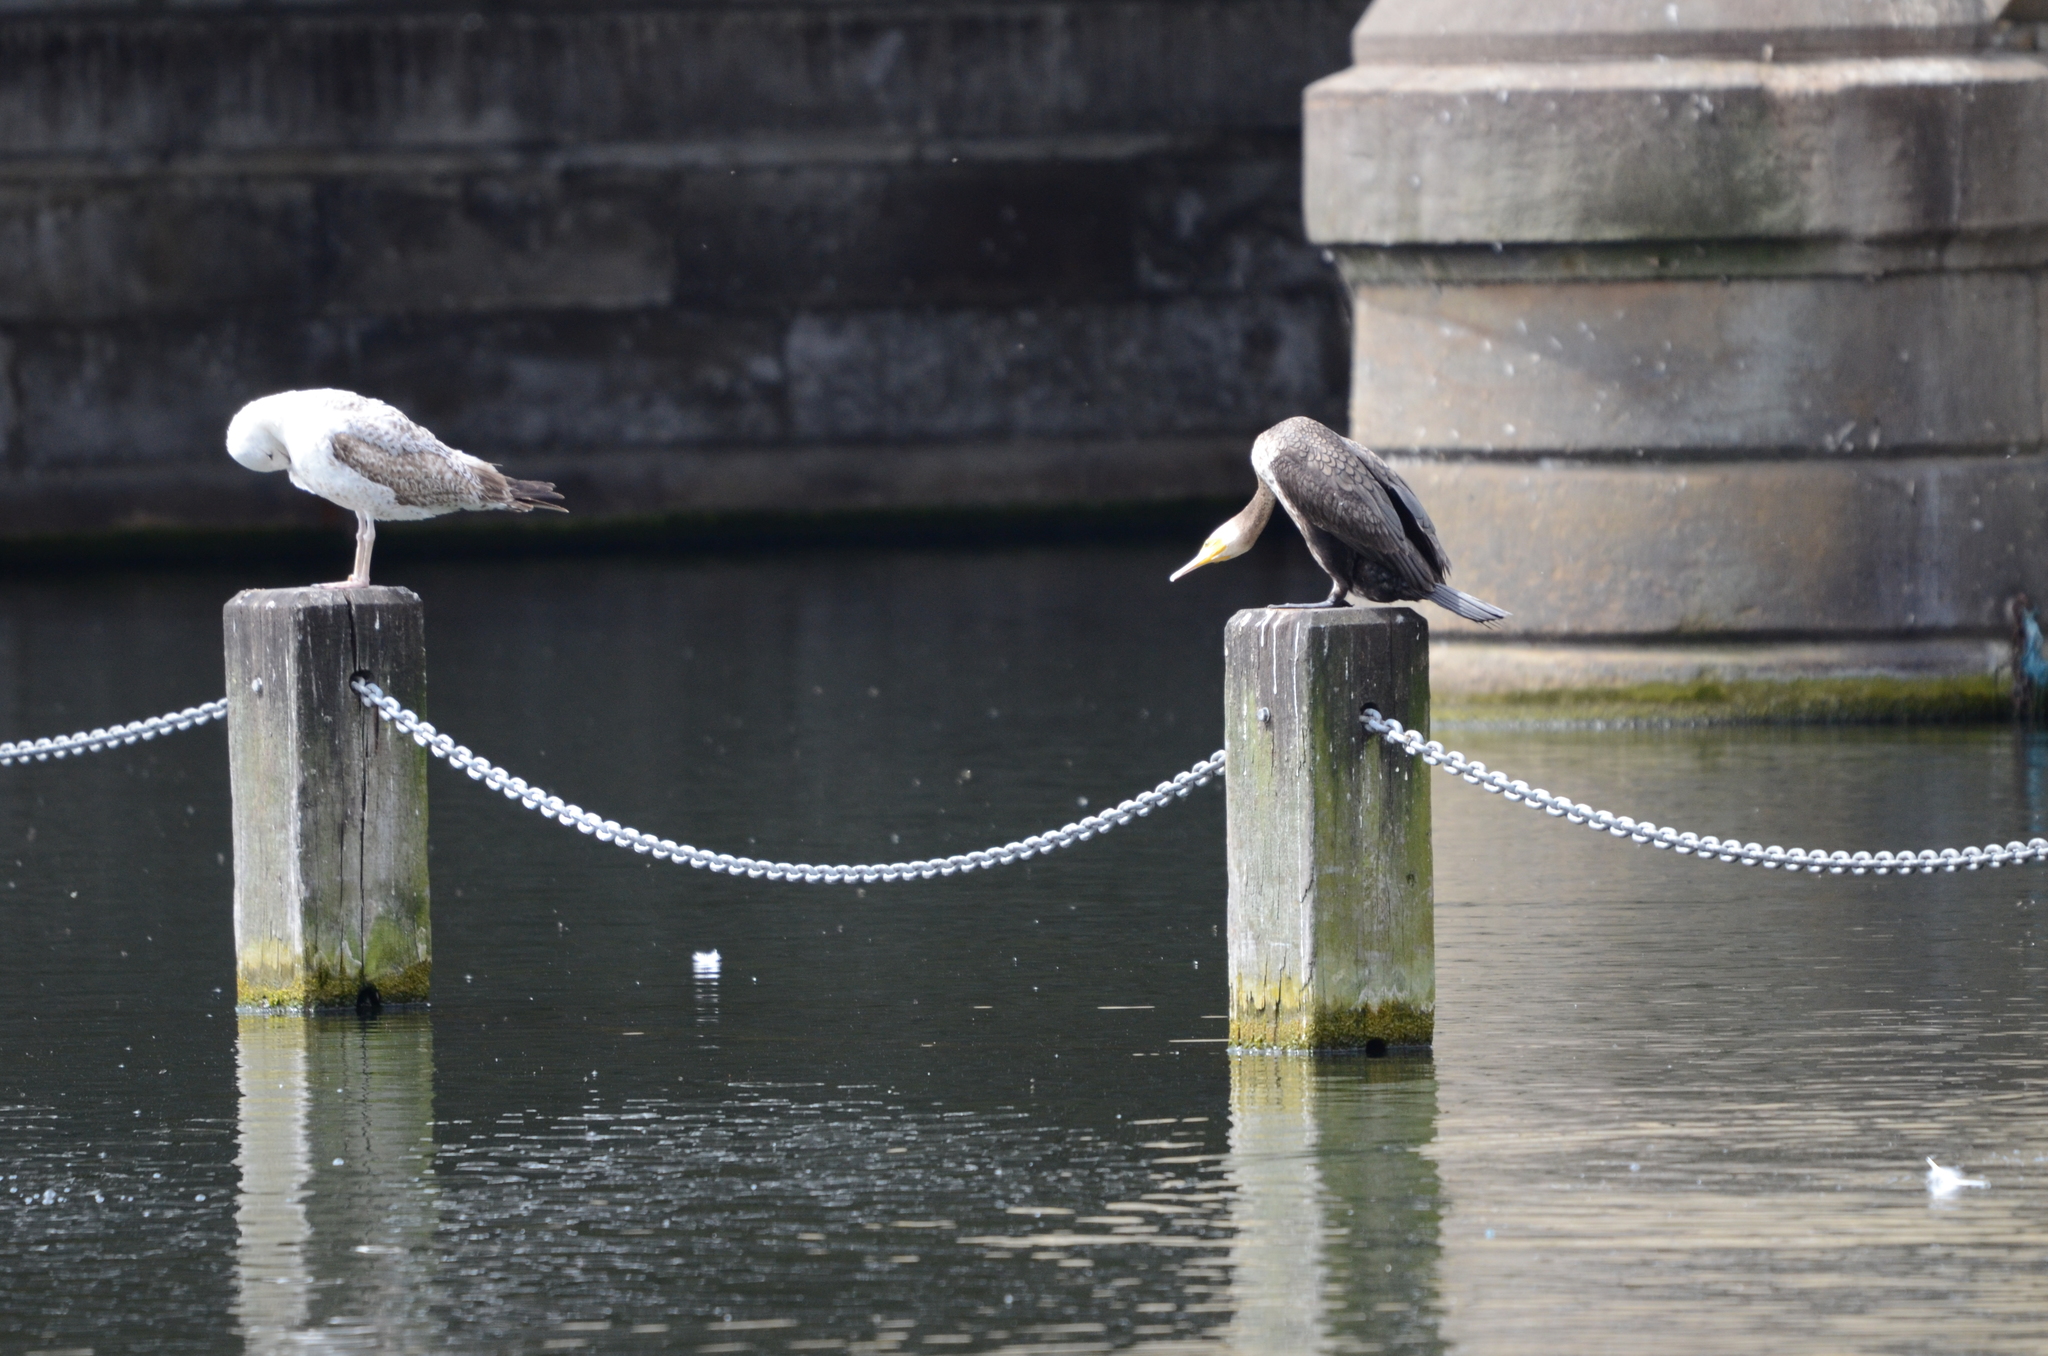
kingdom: Animalia
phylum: Chordata
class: Aves
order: Suliformes
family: Phalacrocoracidae
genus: Phalacrocorax
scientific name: Phalacrocorax carbo
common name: Great cormorant
